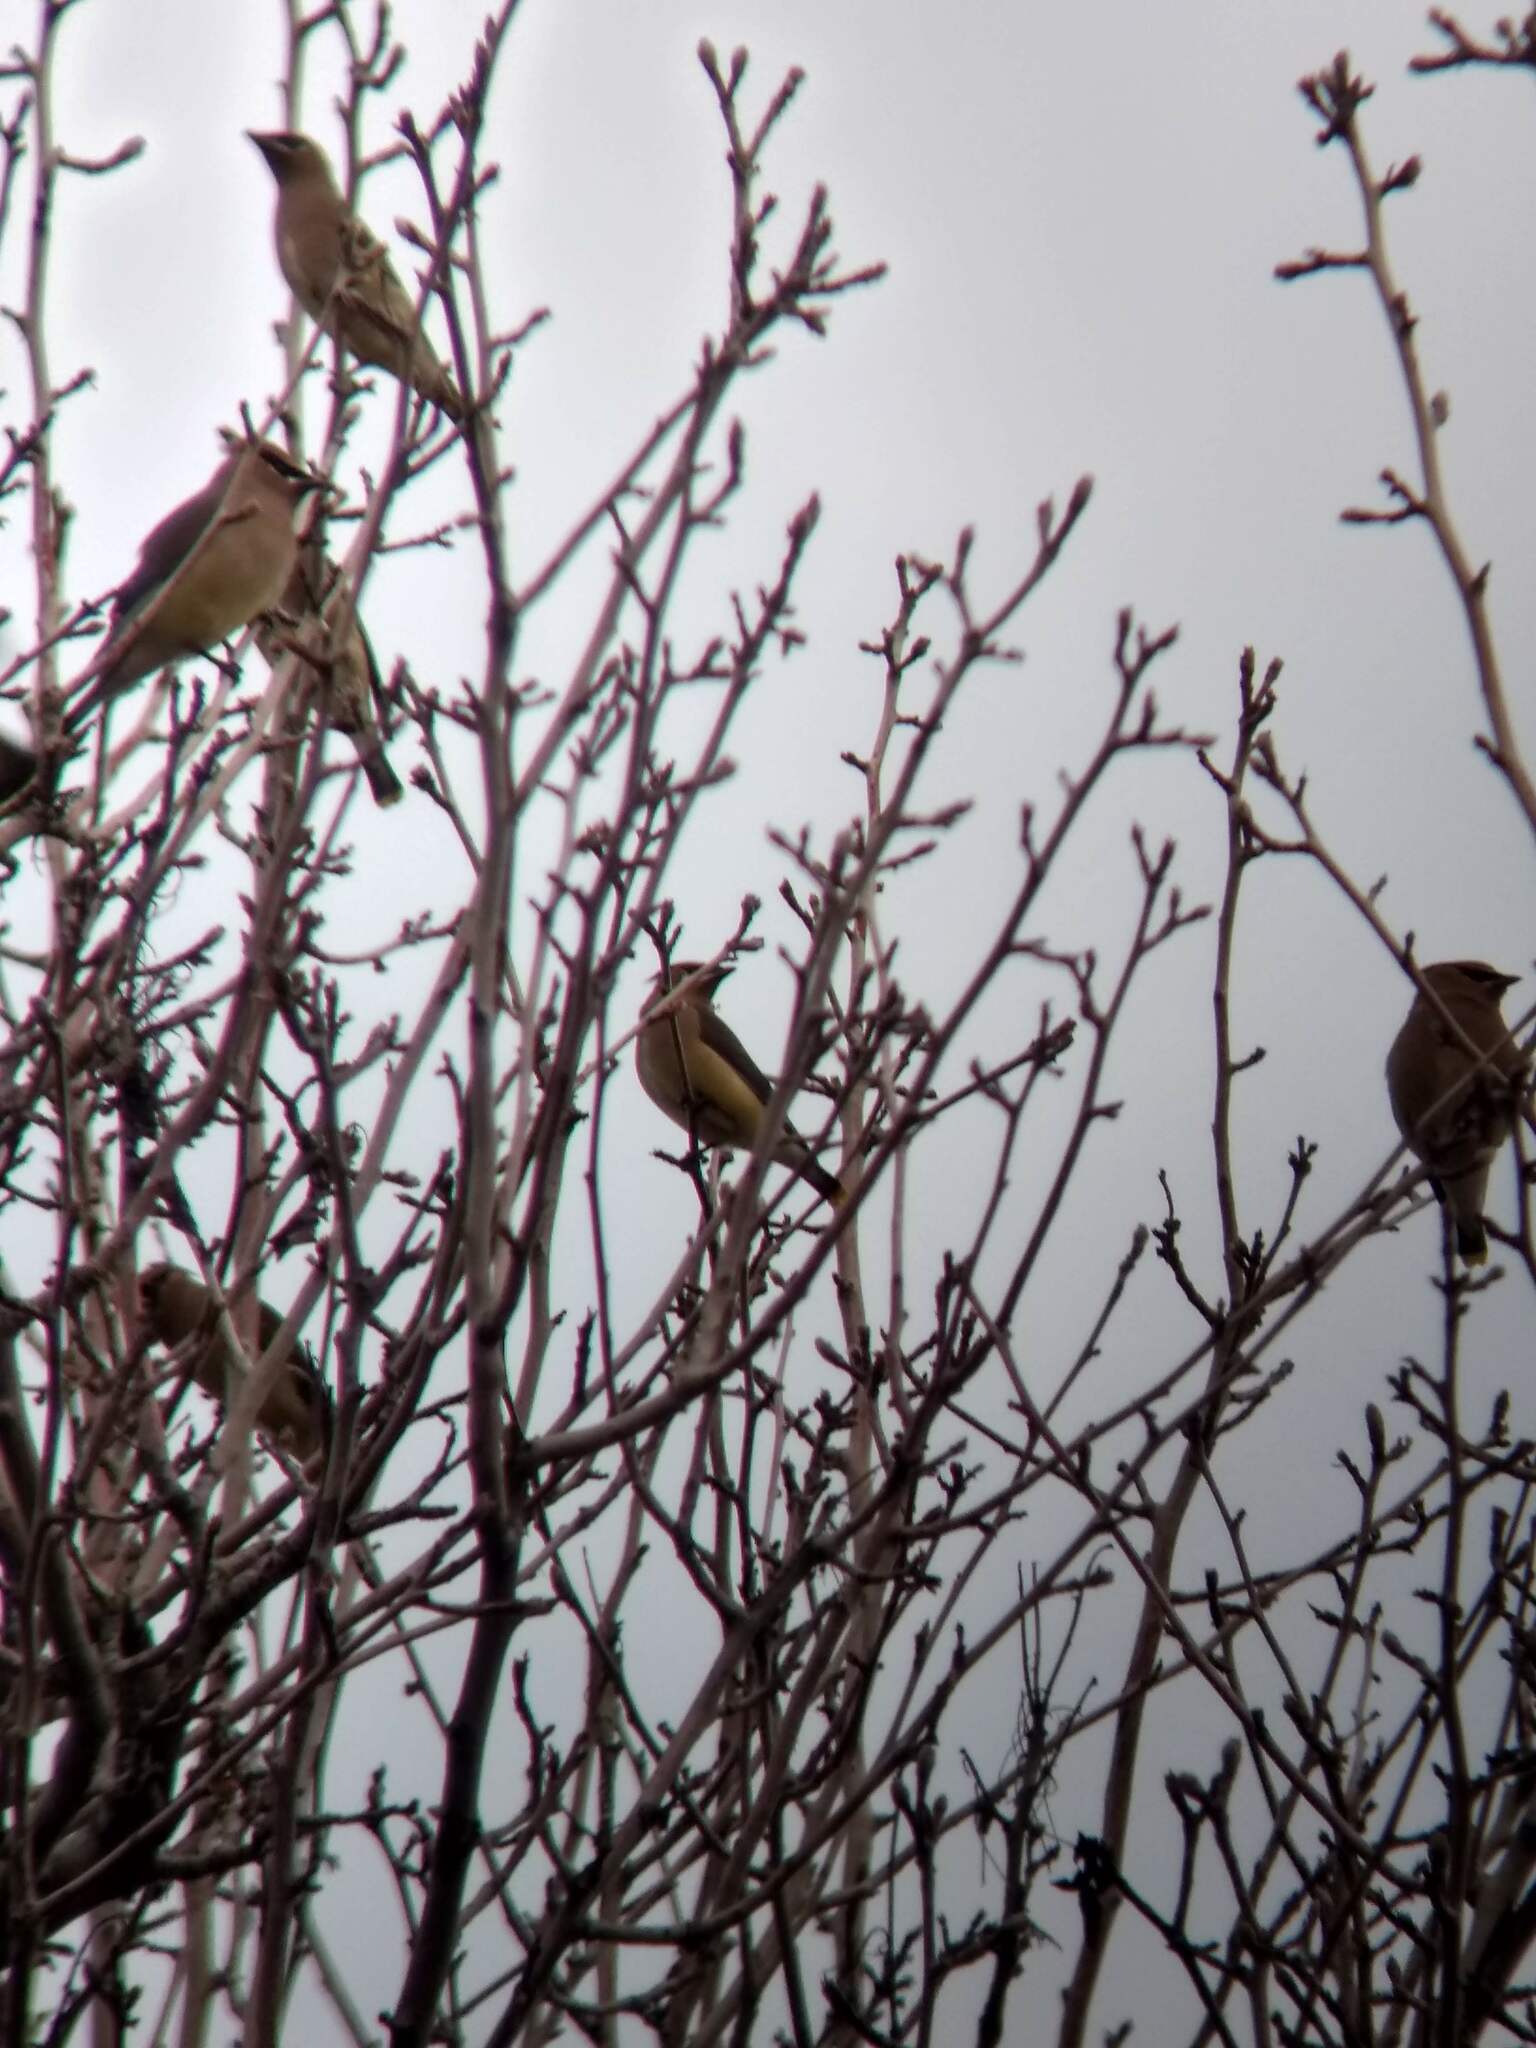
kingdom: Animalia
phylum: Chordata
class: Aves
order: Passeriformes
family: Bombycillidae
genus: Bombycilla
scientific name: Bombycilla cedrorum
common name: Cedar waxwing
